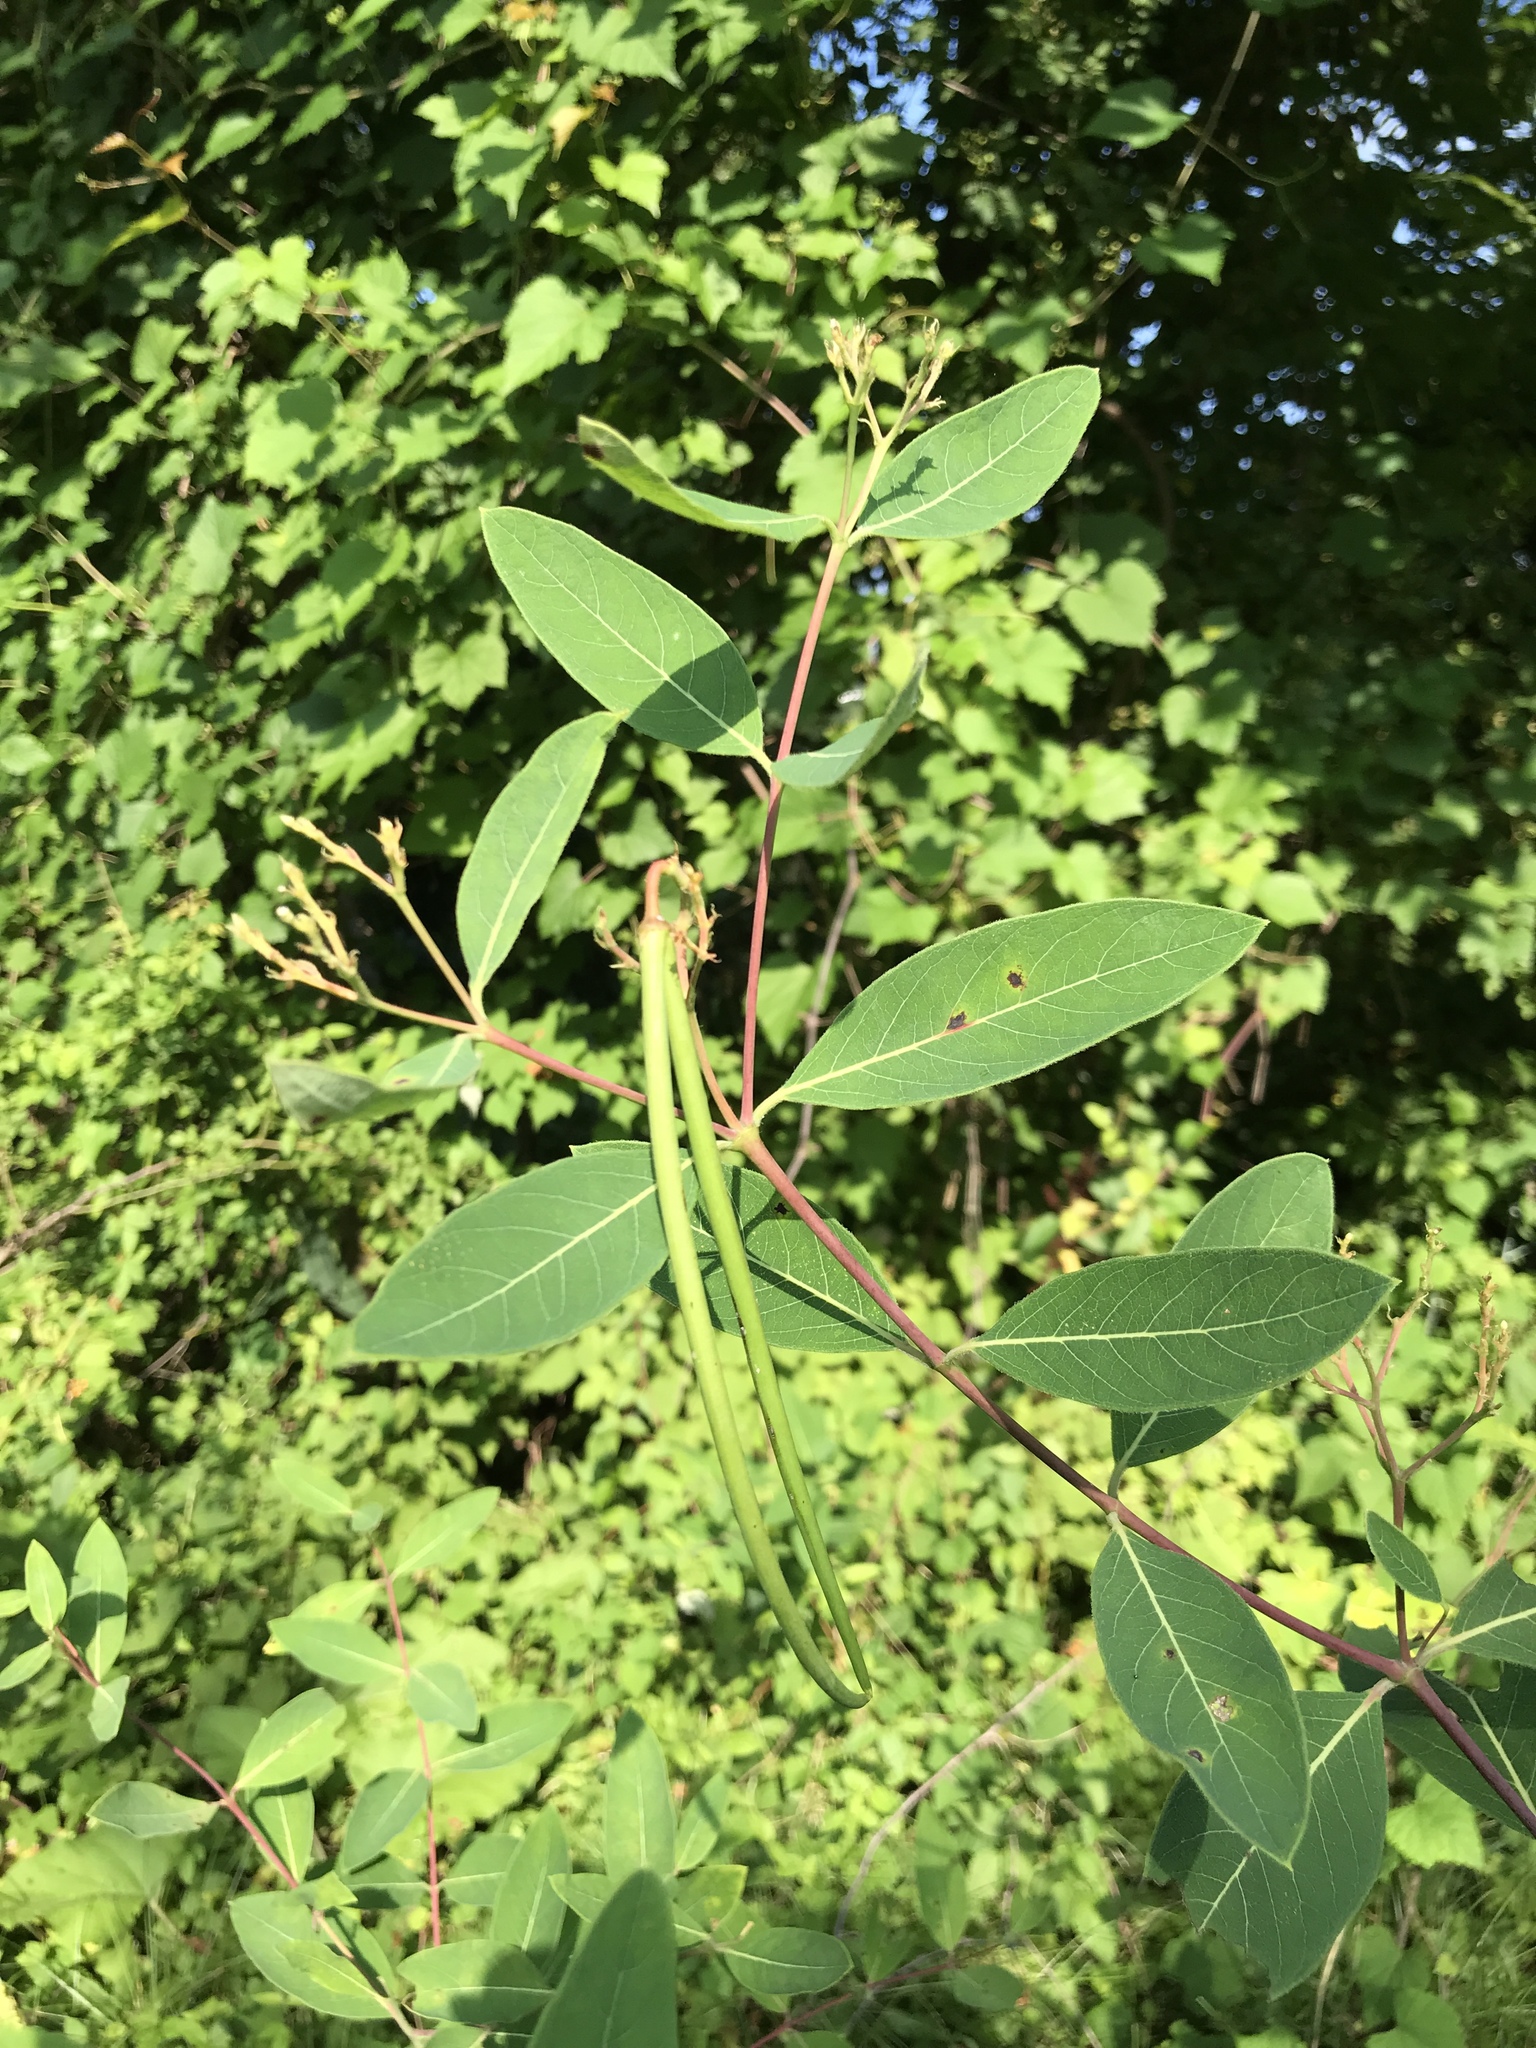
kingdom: Plantae
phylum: Tracheophyta
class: Magnoliopsida
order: Gentianales
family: Apocynaceae
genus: Apocynum
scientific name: Apocynum cannabinum
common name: Hemp dogbane
